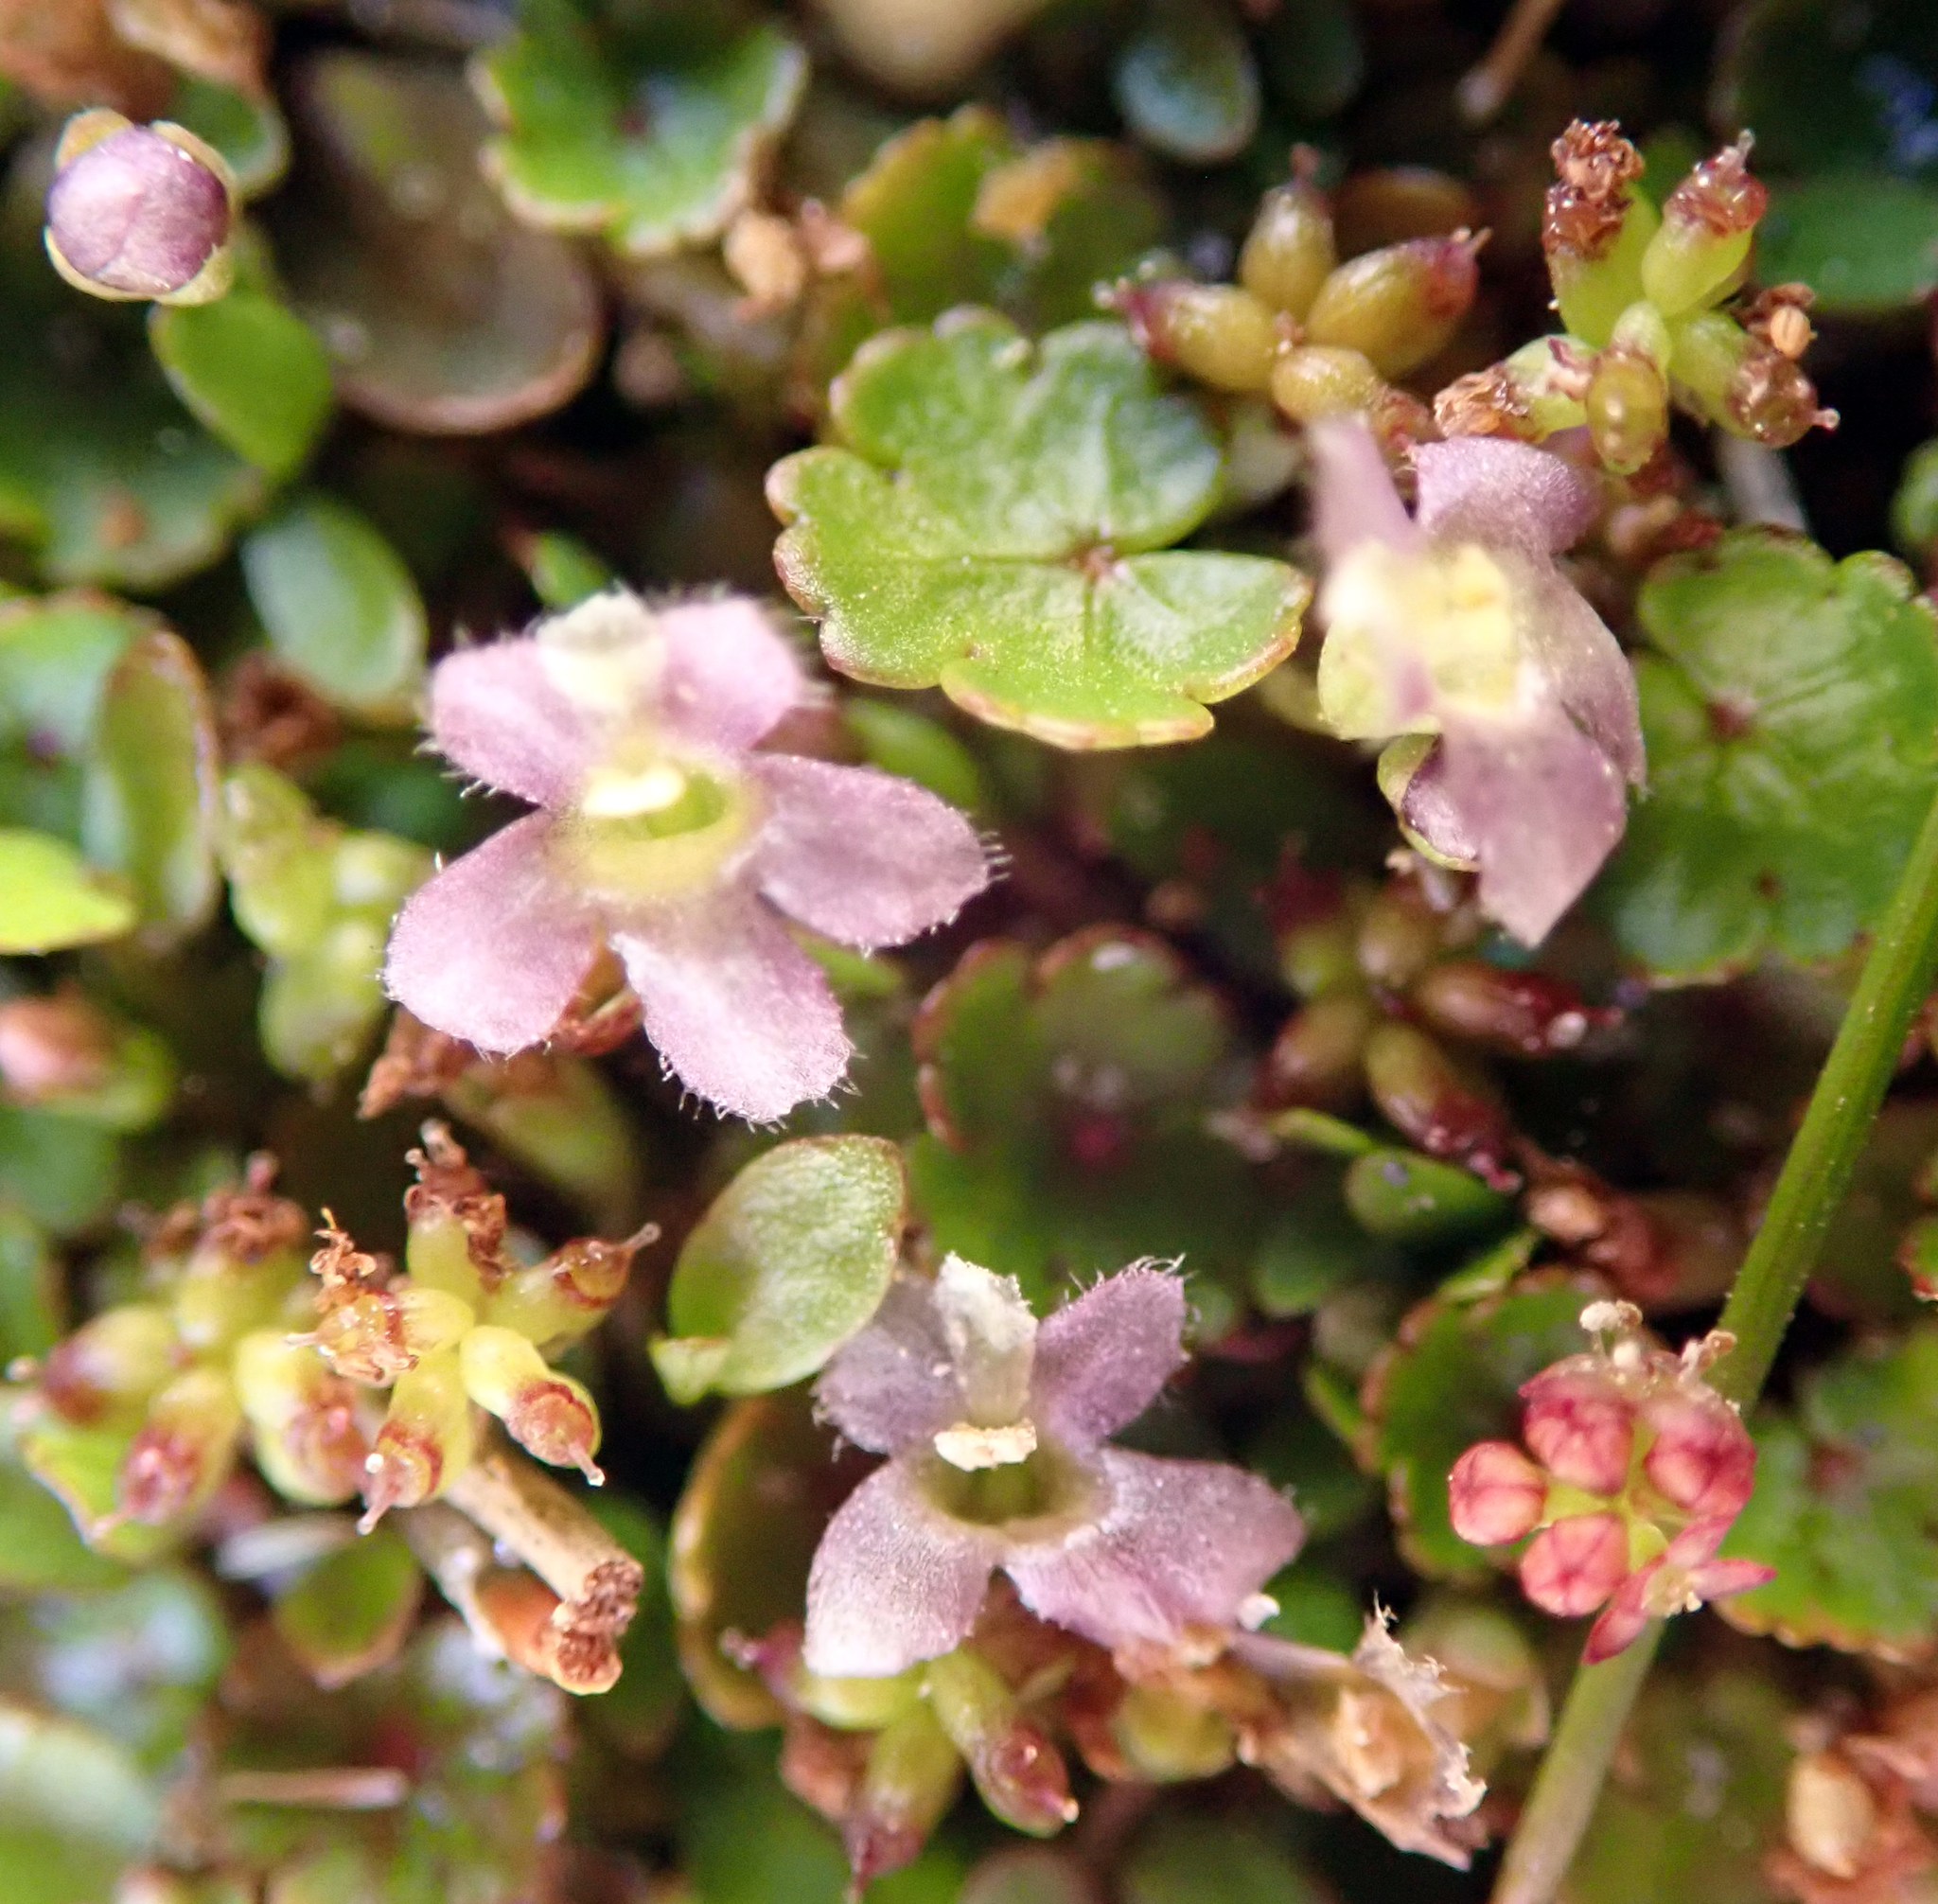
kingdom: Plantae
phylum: Tracheophyta
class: Magnoliopsida
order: Lamiales
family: Phrymaceae
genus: Glossostigma
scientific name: Glossostigma elatinoides
